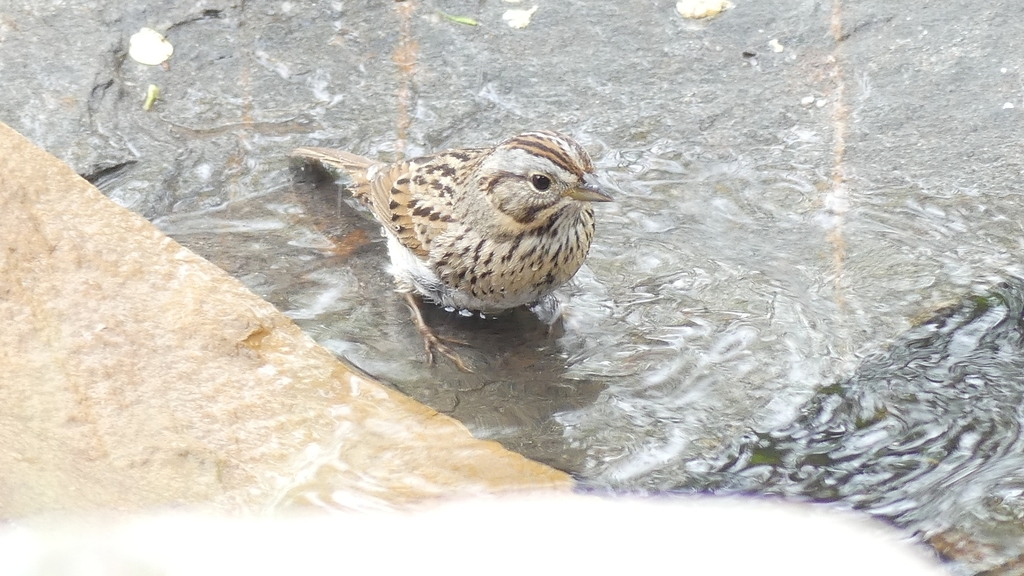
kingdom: Animalia
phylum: Chordata
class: Aves
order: Passeriformes
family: Passerellidae
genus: Melospiza
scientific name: Melospiza lincolnii
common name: Lincoln's sparrow
